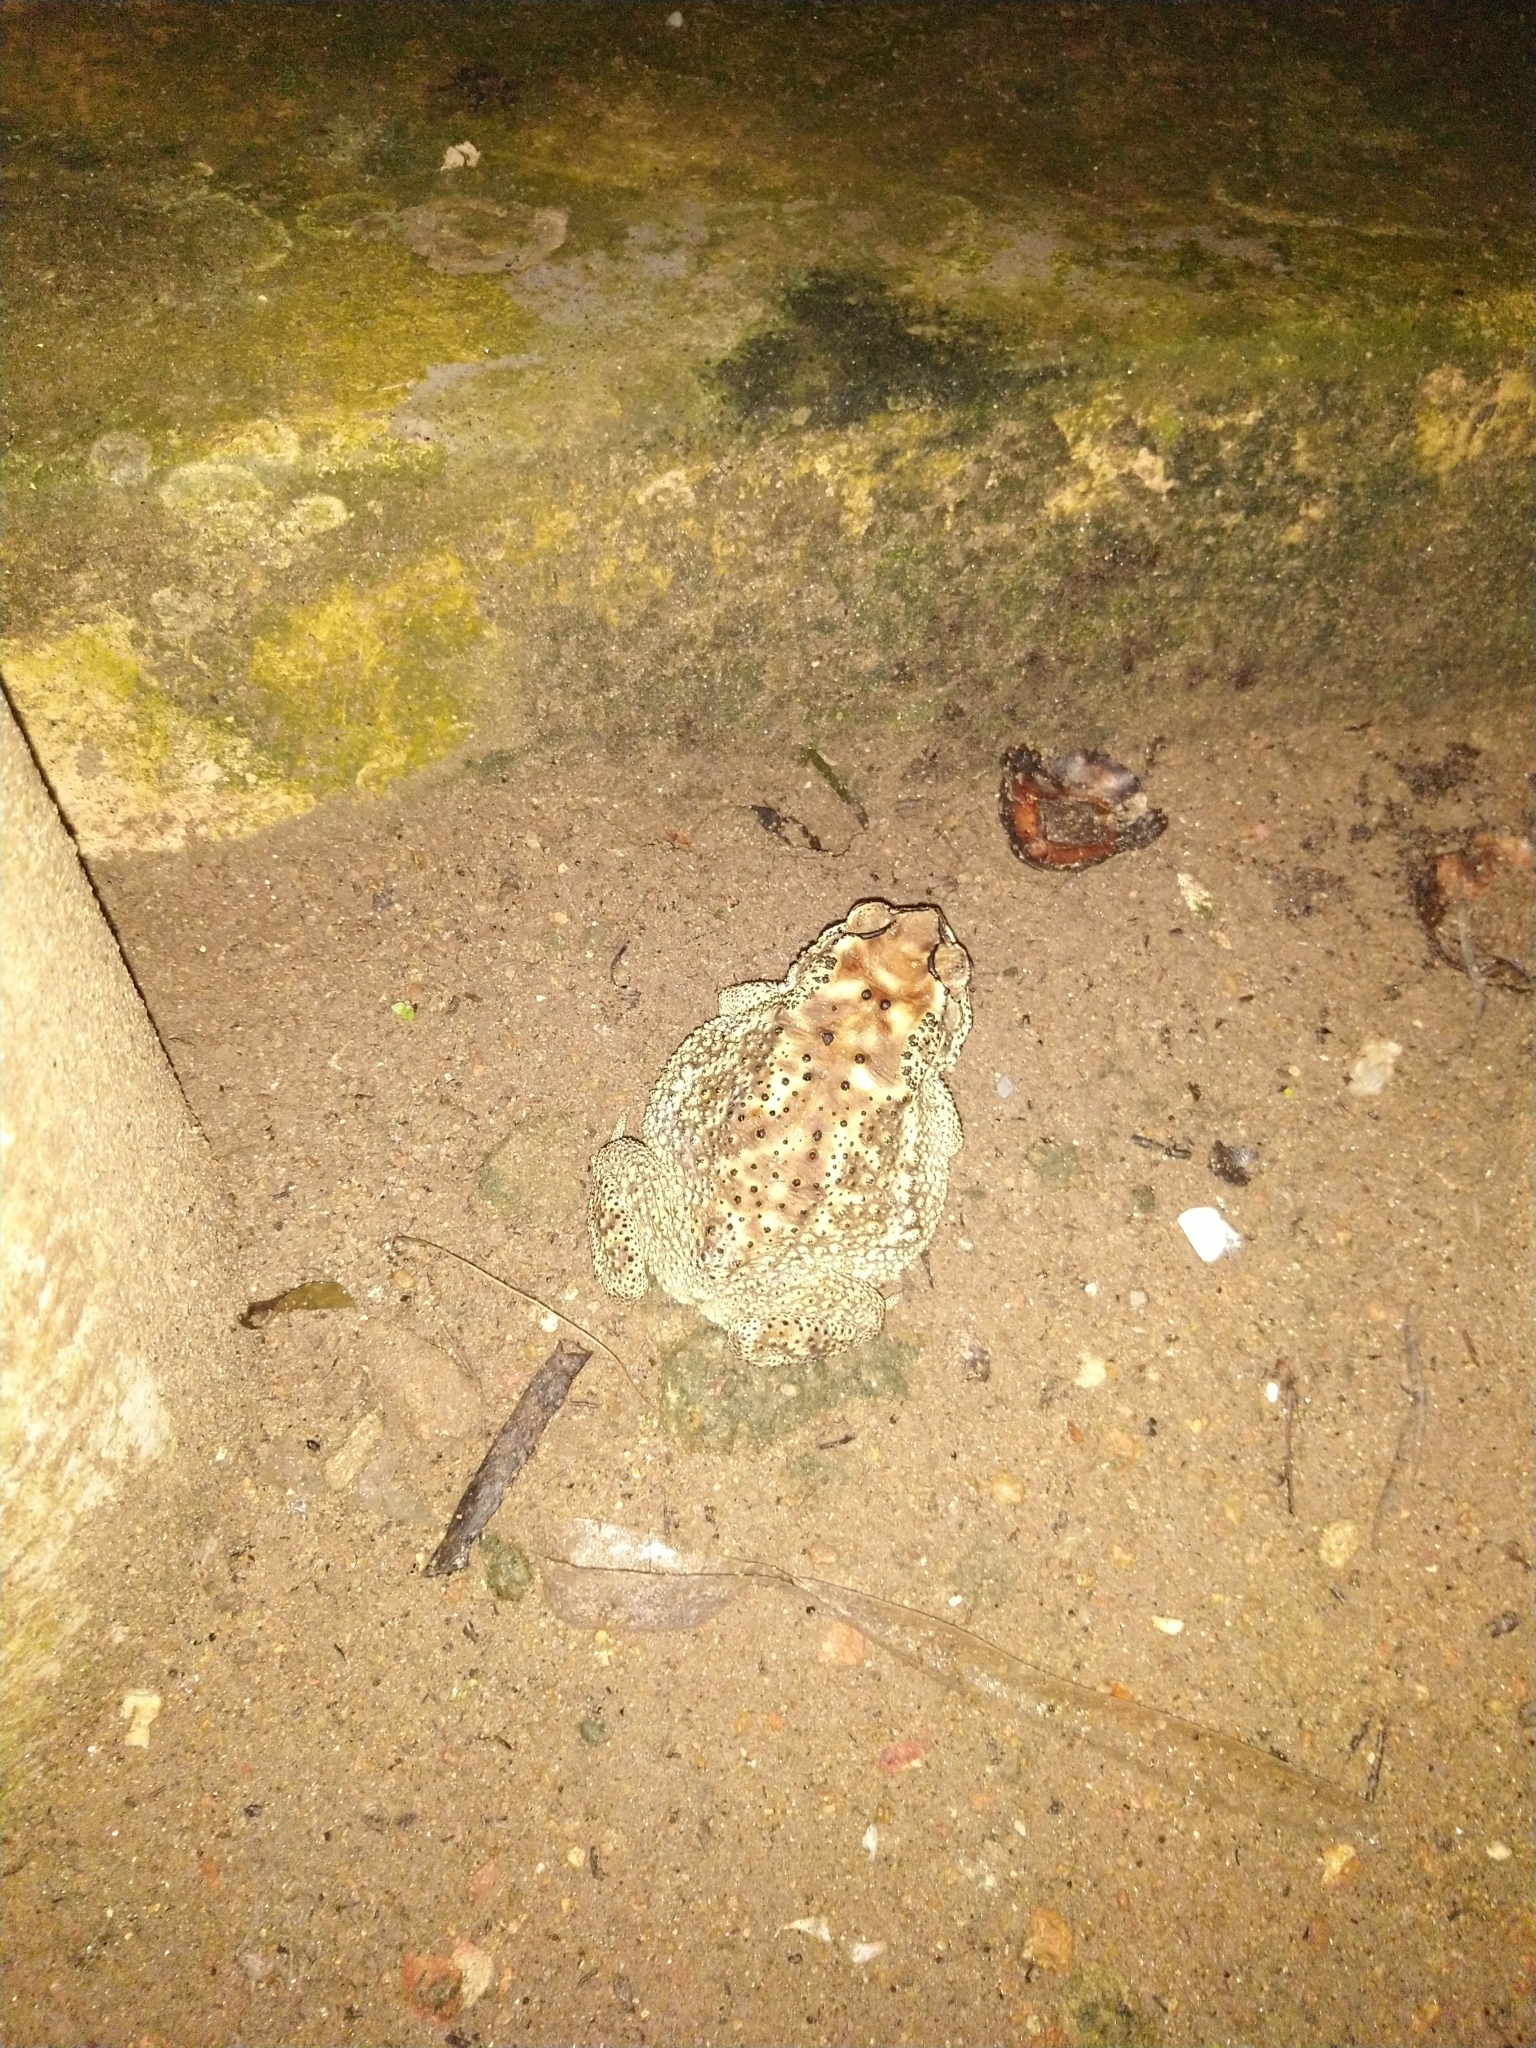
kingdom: Animalia
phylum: Chordata
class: Amphibia
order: Anura
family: Bufonidae
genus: Duttaphrynus
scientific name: Duttaphrynus melanostictus
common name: Common sunda toad
